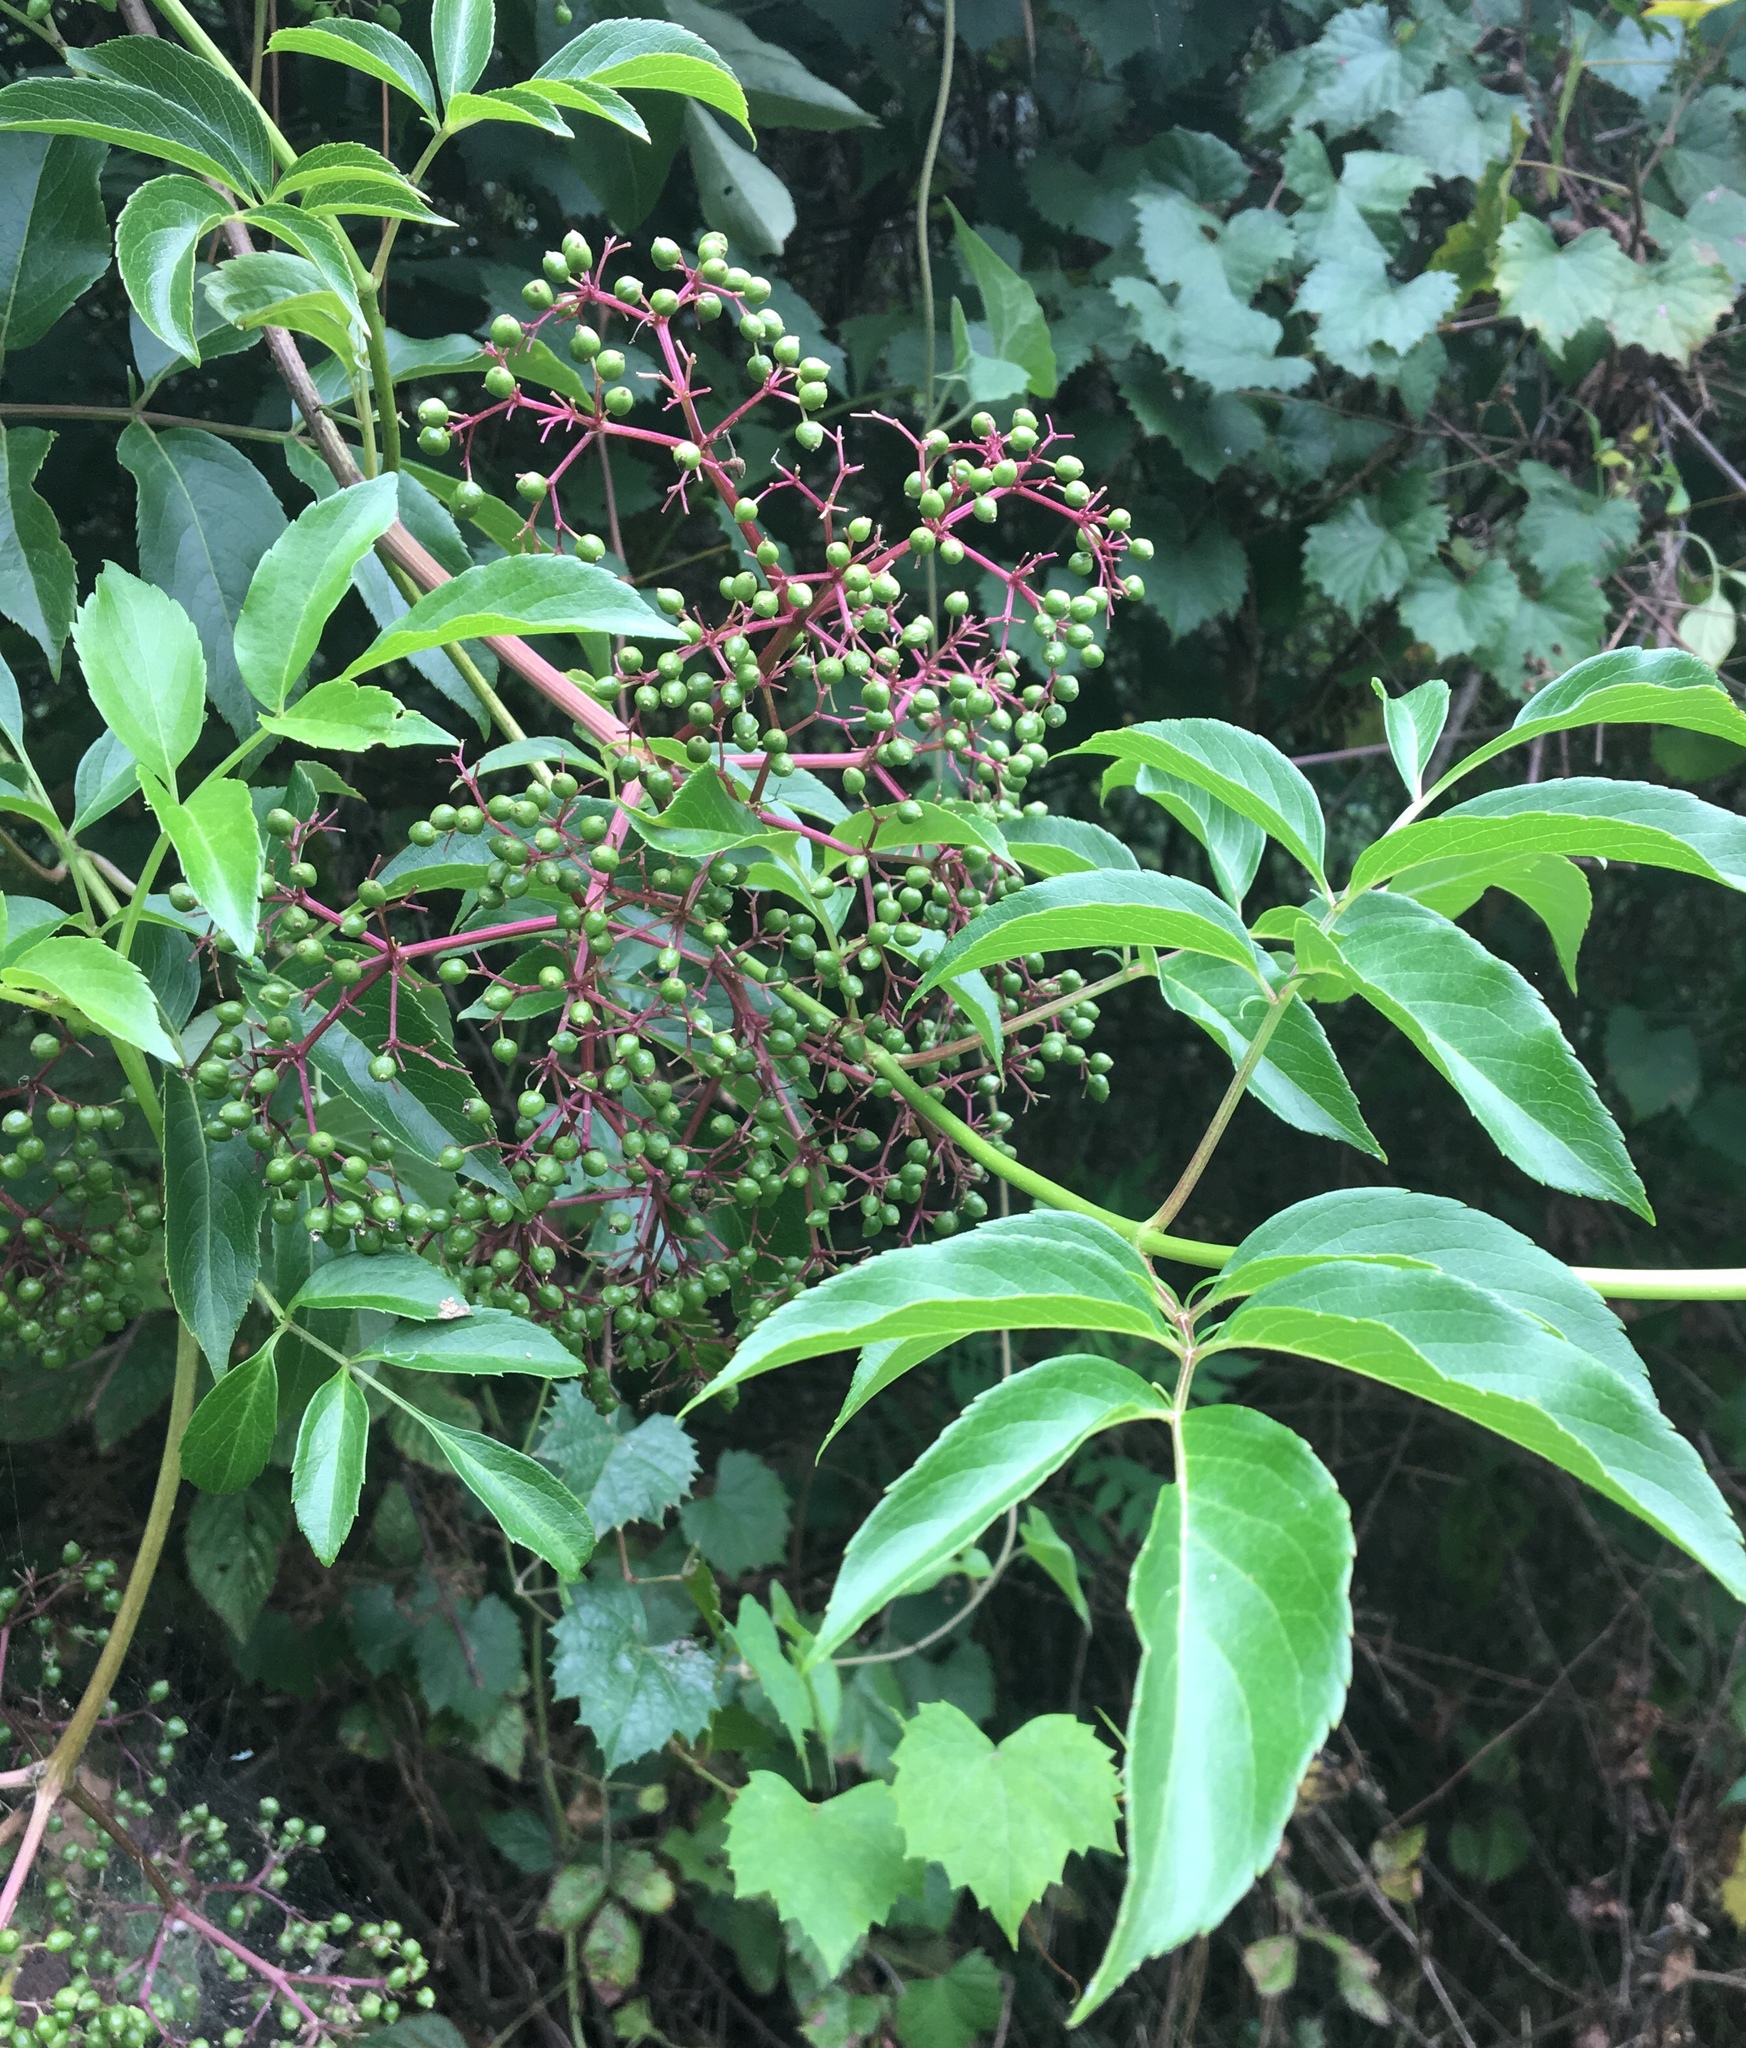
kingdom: Plantae
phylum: Tracheophyta
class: Magnoliopsida
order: Dipsacales
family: Viburnaceae
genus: Sambucus
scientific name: Sambucus canadensis
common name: American elder
